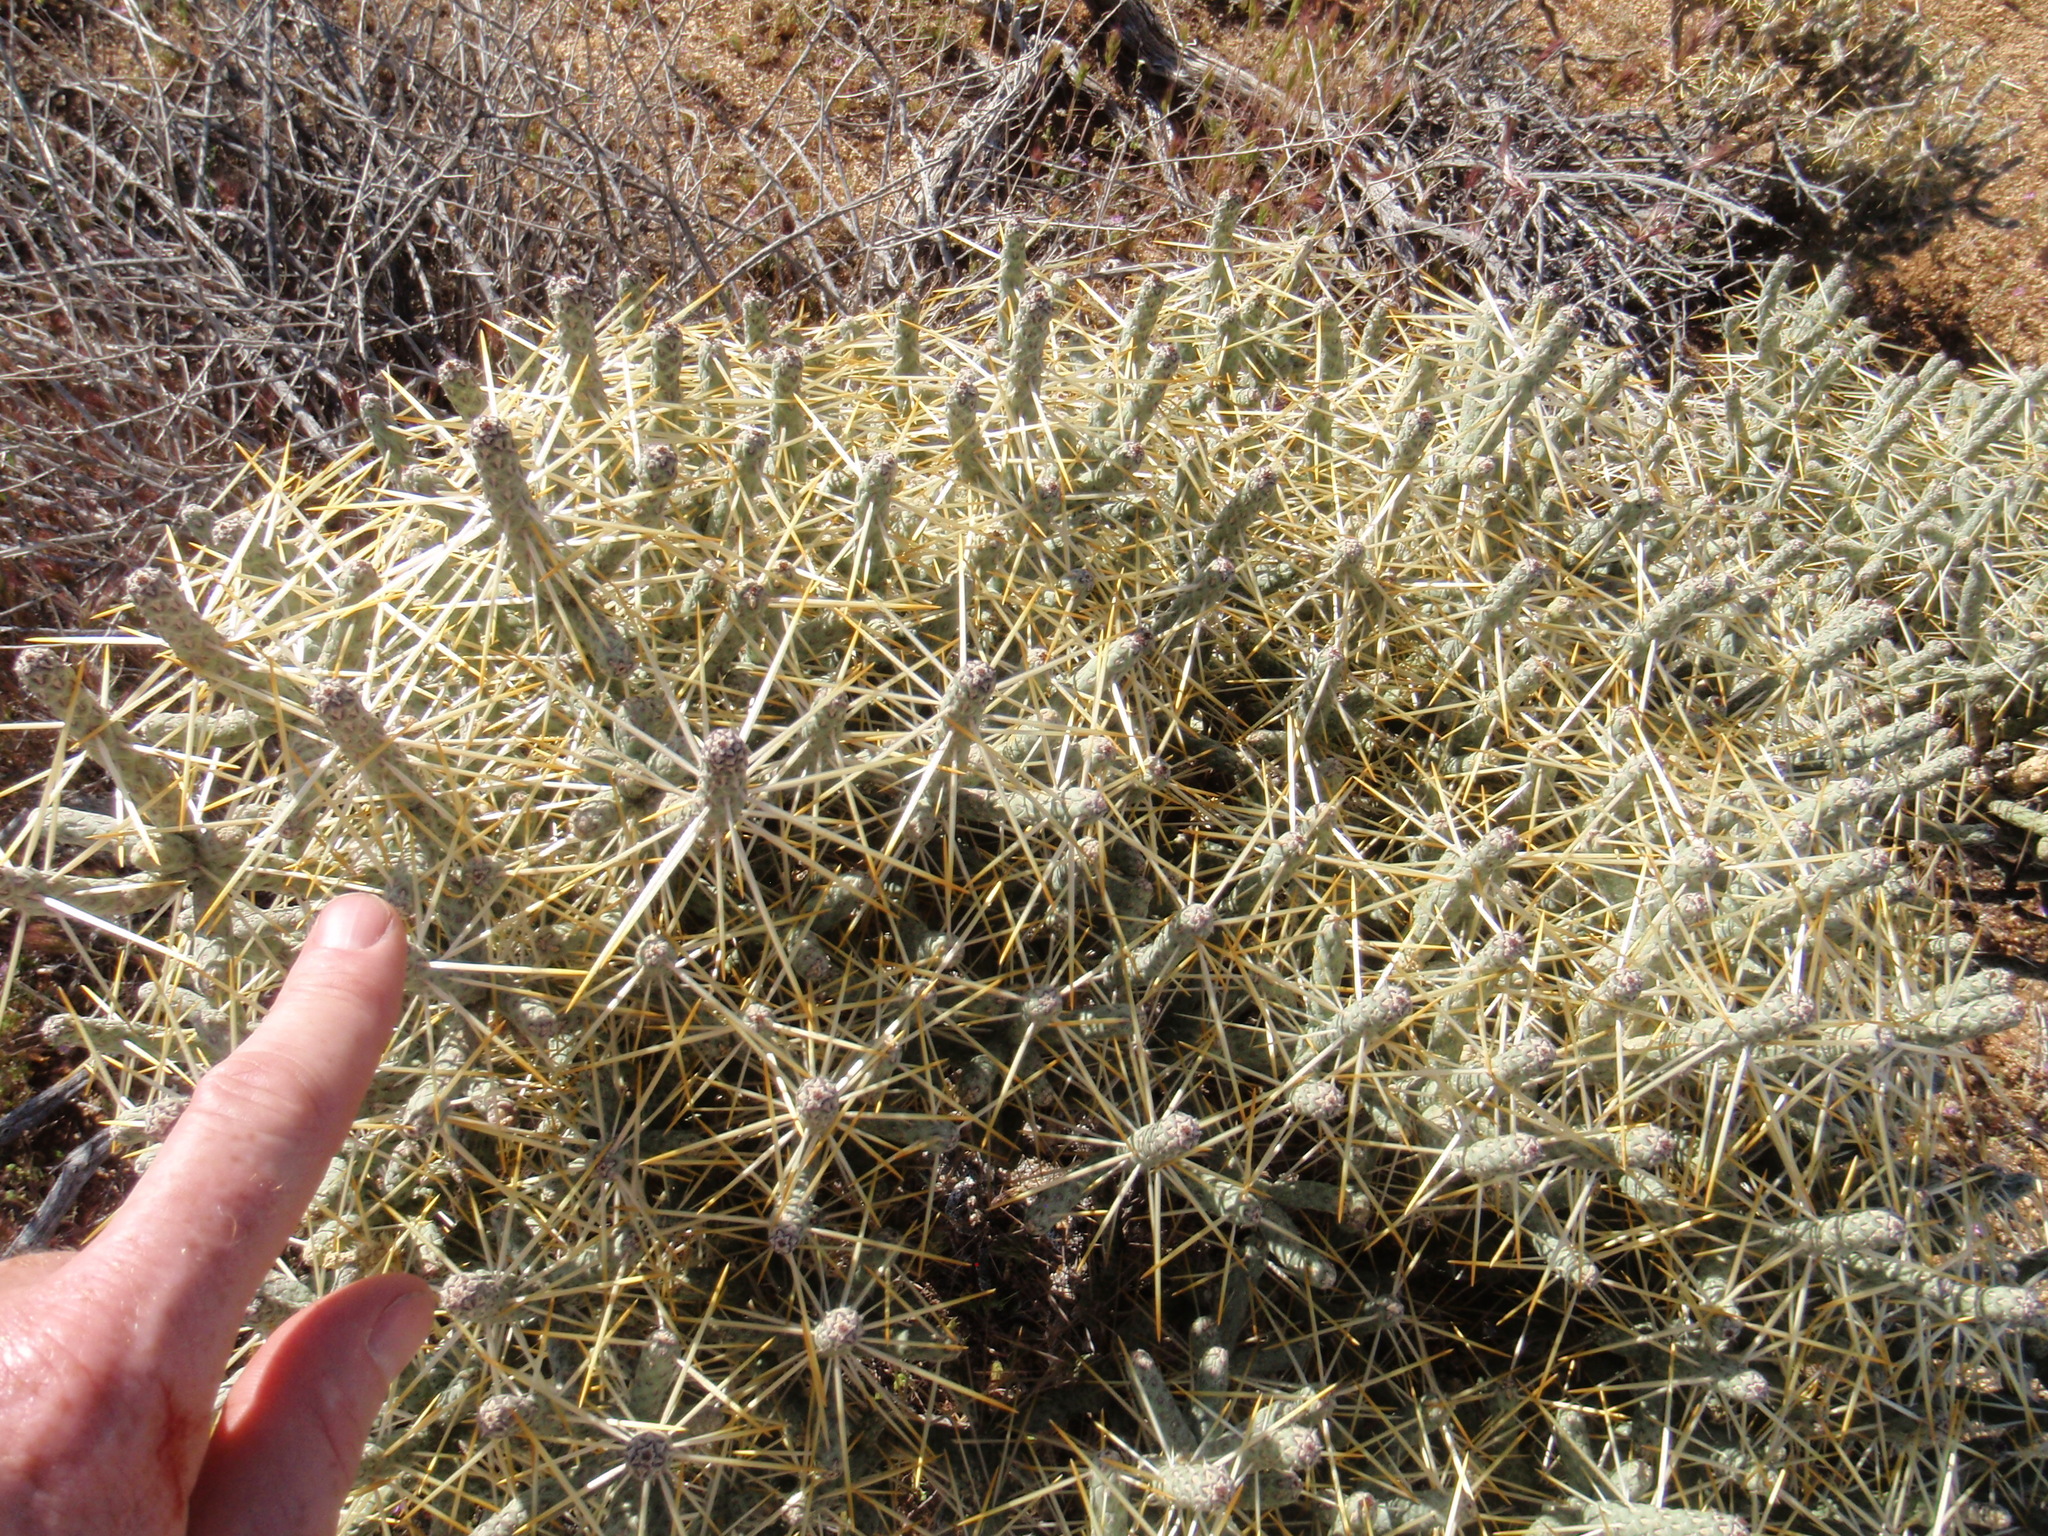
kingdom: Plantae
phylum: Tracheophyta
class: Magnoliopsida
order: Caryophyllales
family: Cactaceae
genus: Cylindropuntia
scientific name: Cylindropuntia ramosissima
